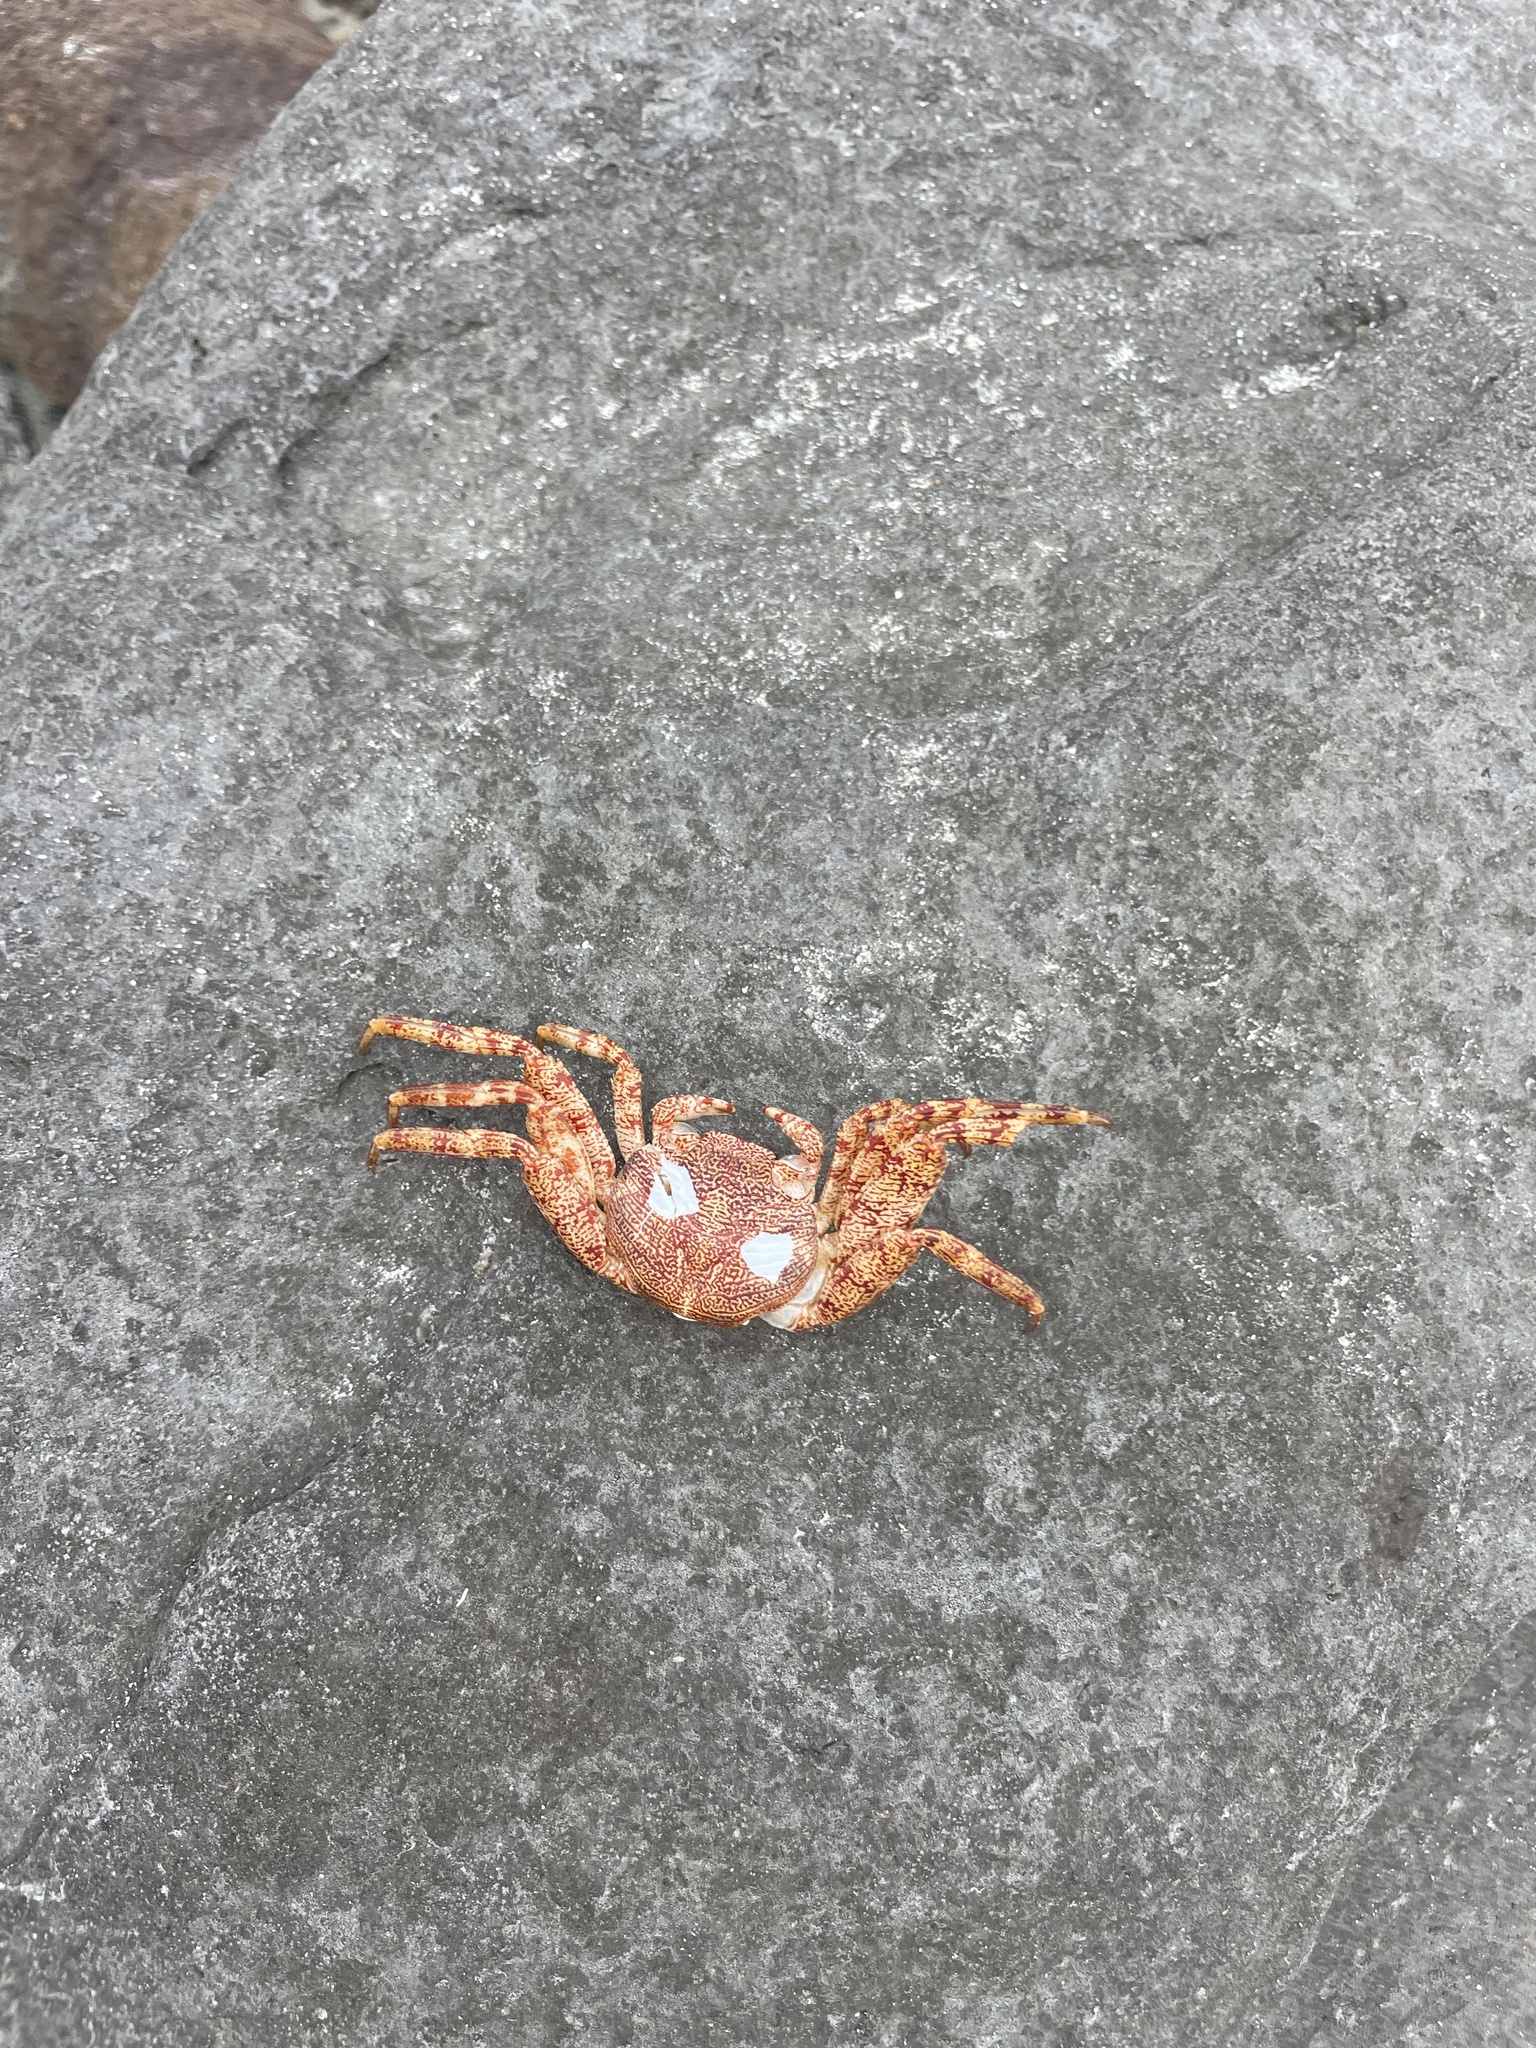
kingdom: Animalia
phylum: Arthropoda
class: Malacostraca
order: Decapoda
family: Grapsidae
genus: Grapsus
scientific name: Grapsus grapsus
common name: Sally lightfoot
